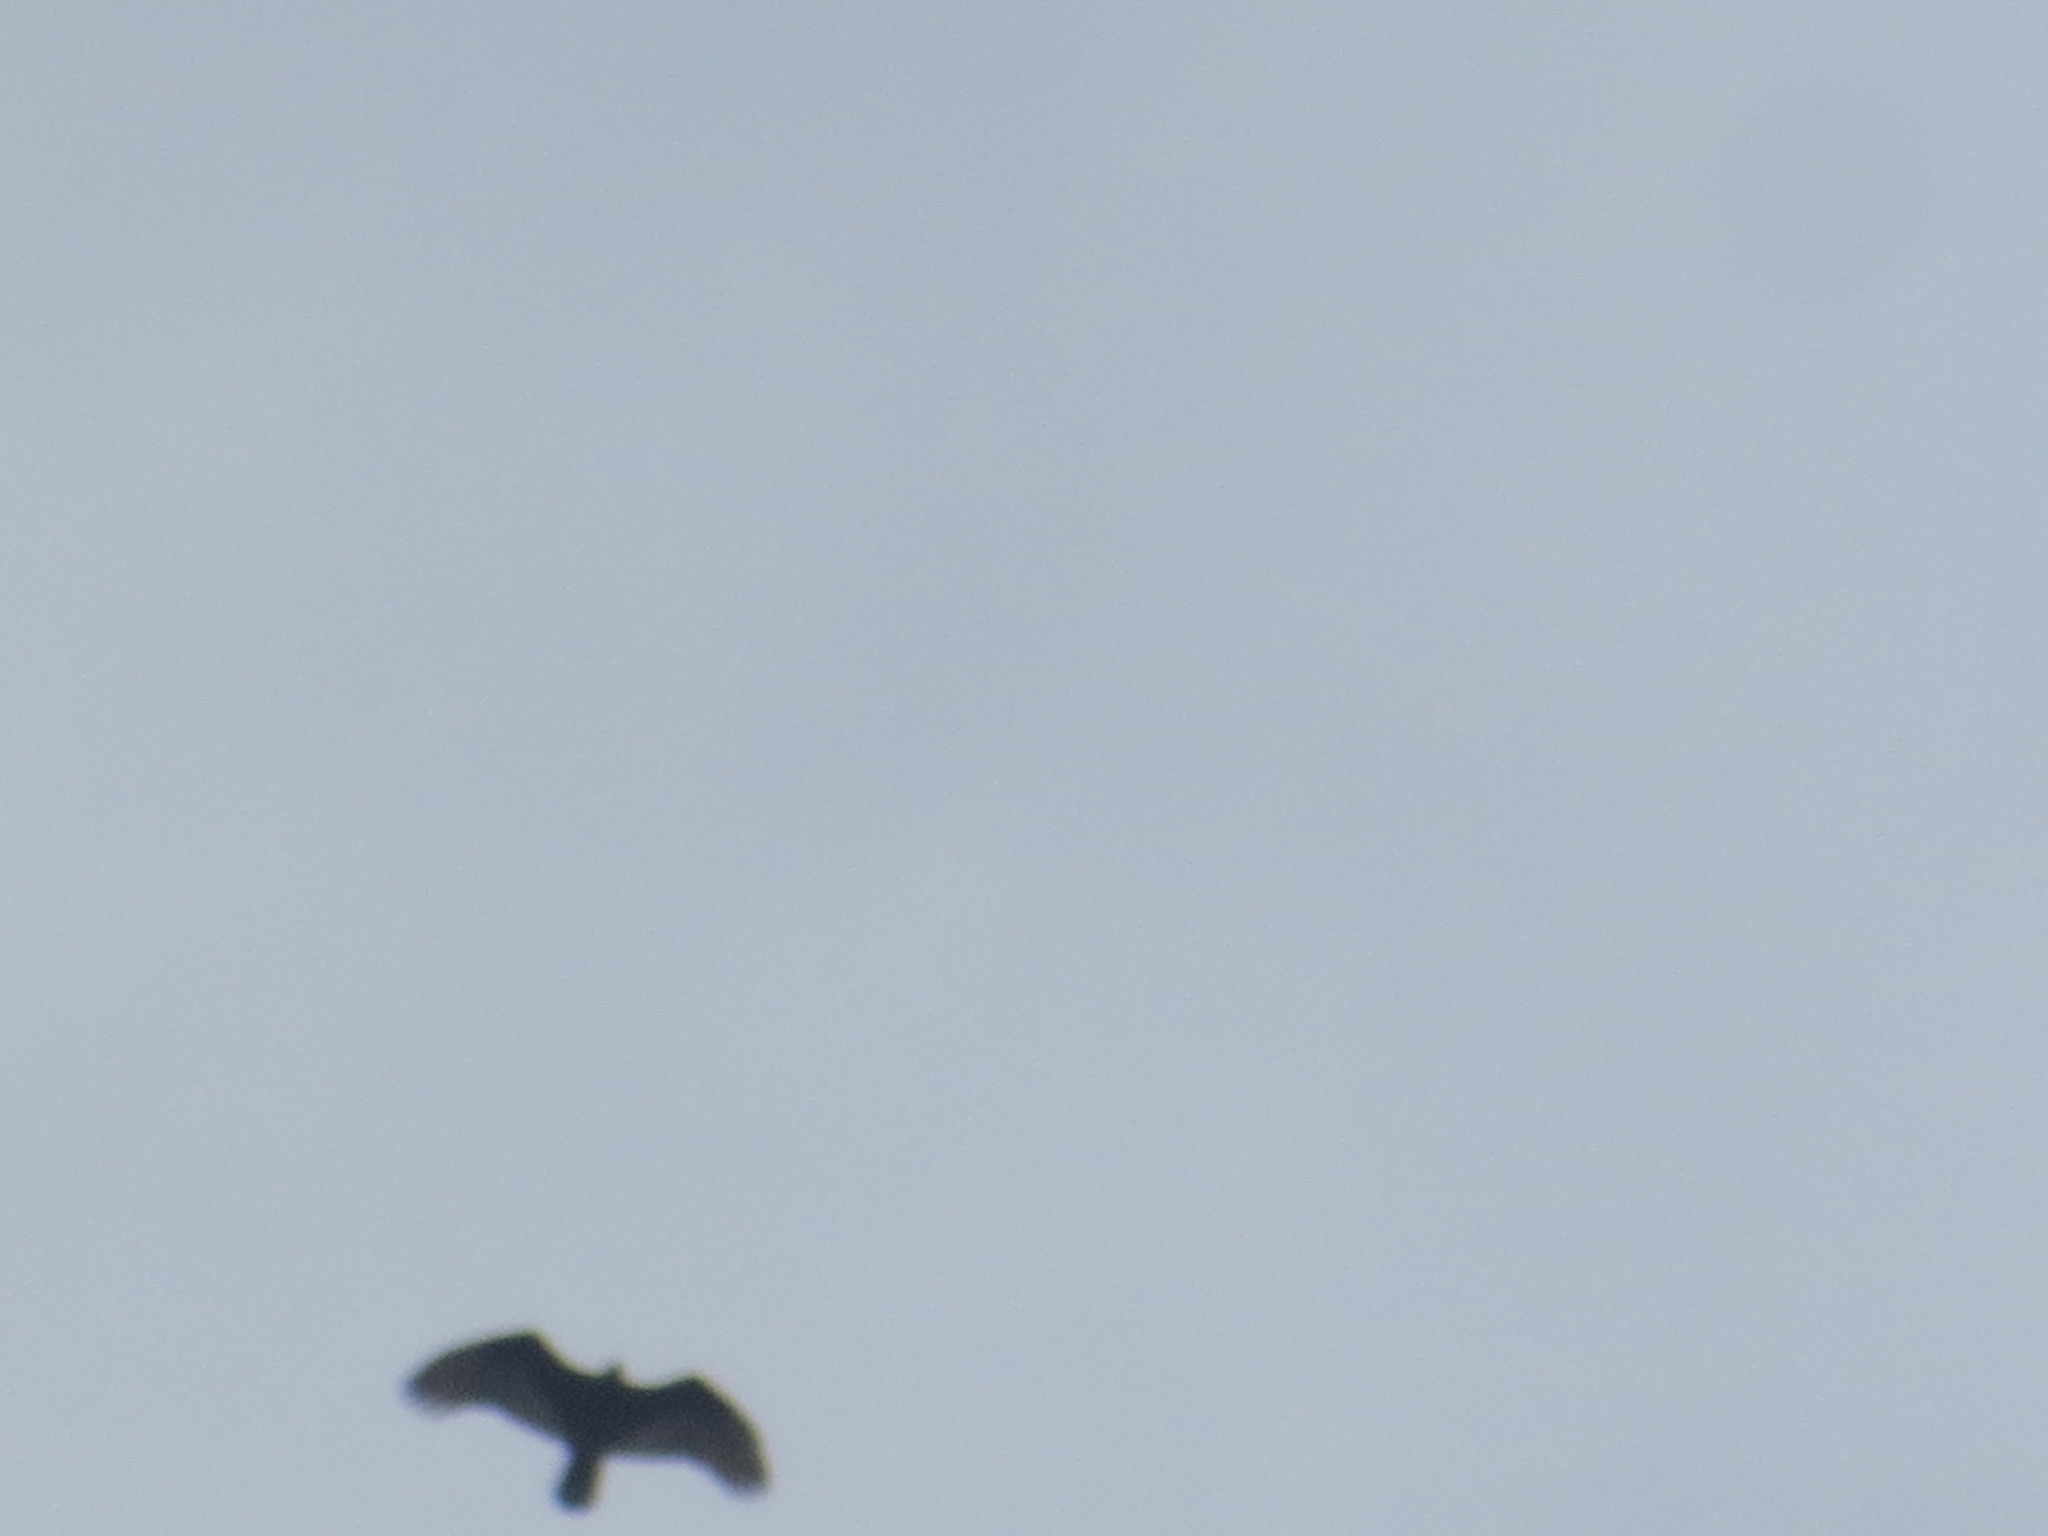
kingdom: Animalia
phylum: Chordata
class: Aves
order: Accipitriformes
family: Cathartidae
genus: Cathartes
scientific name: Cathartes aura
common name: Turkey vulture
